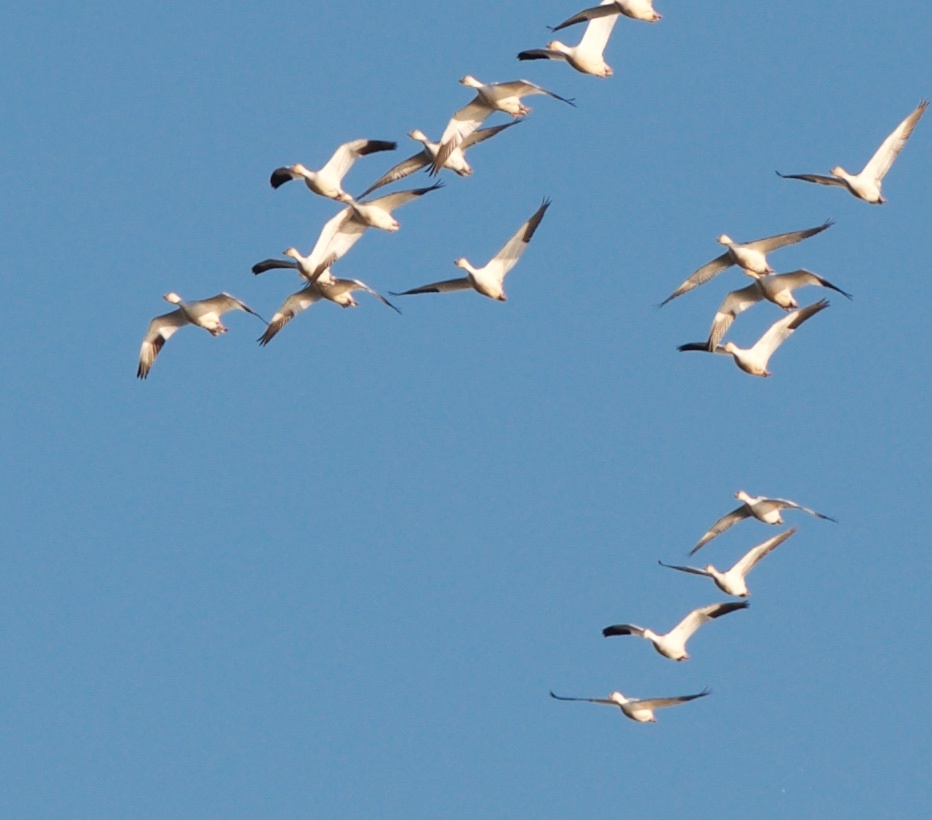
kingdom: Animalia
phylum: Chordata
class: Aves
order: Anseriformes
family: Anatidae
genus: Anser
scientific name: Anser caerulescens
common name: Snow goose
